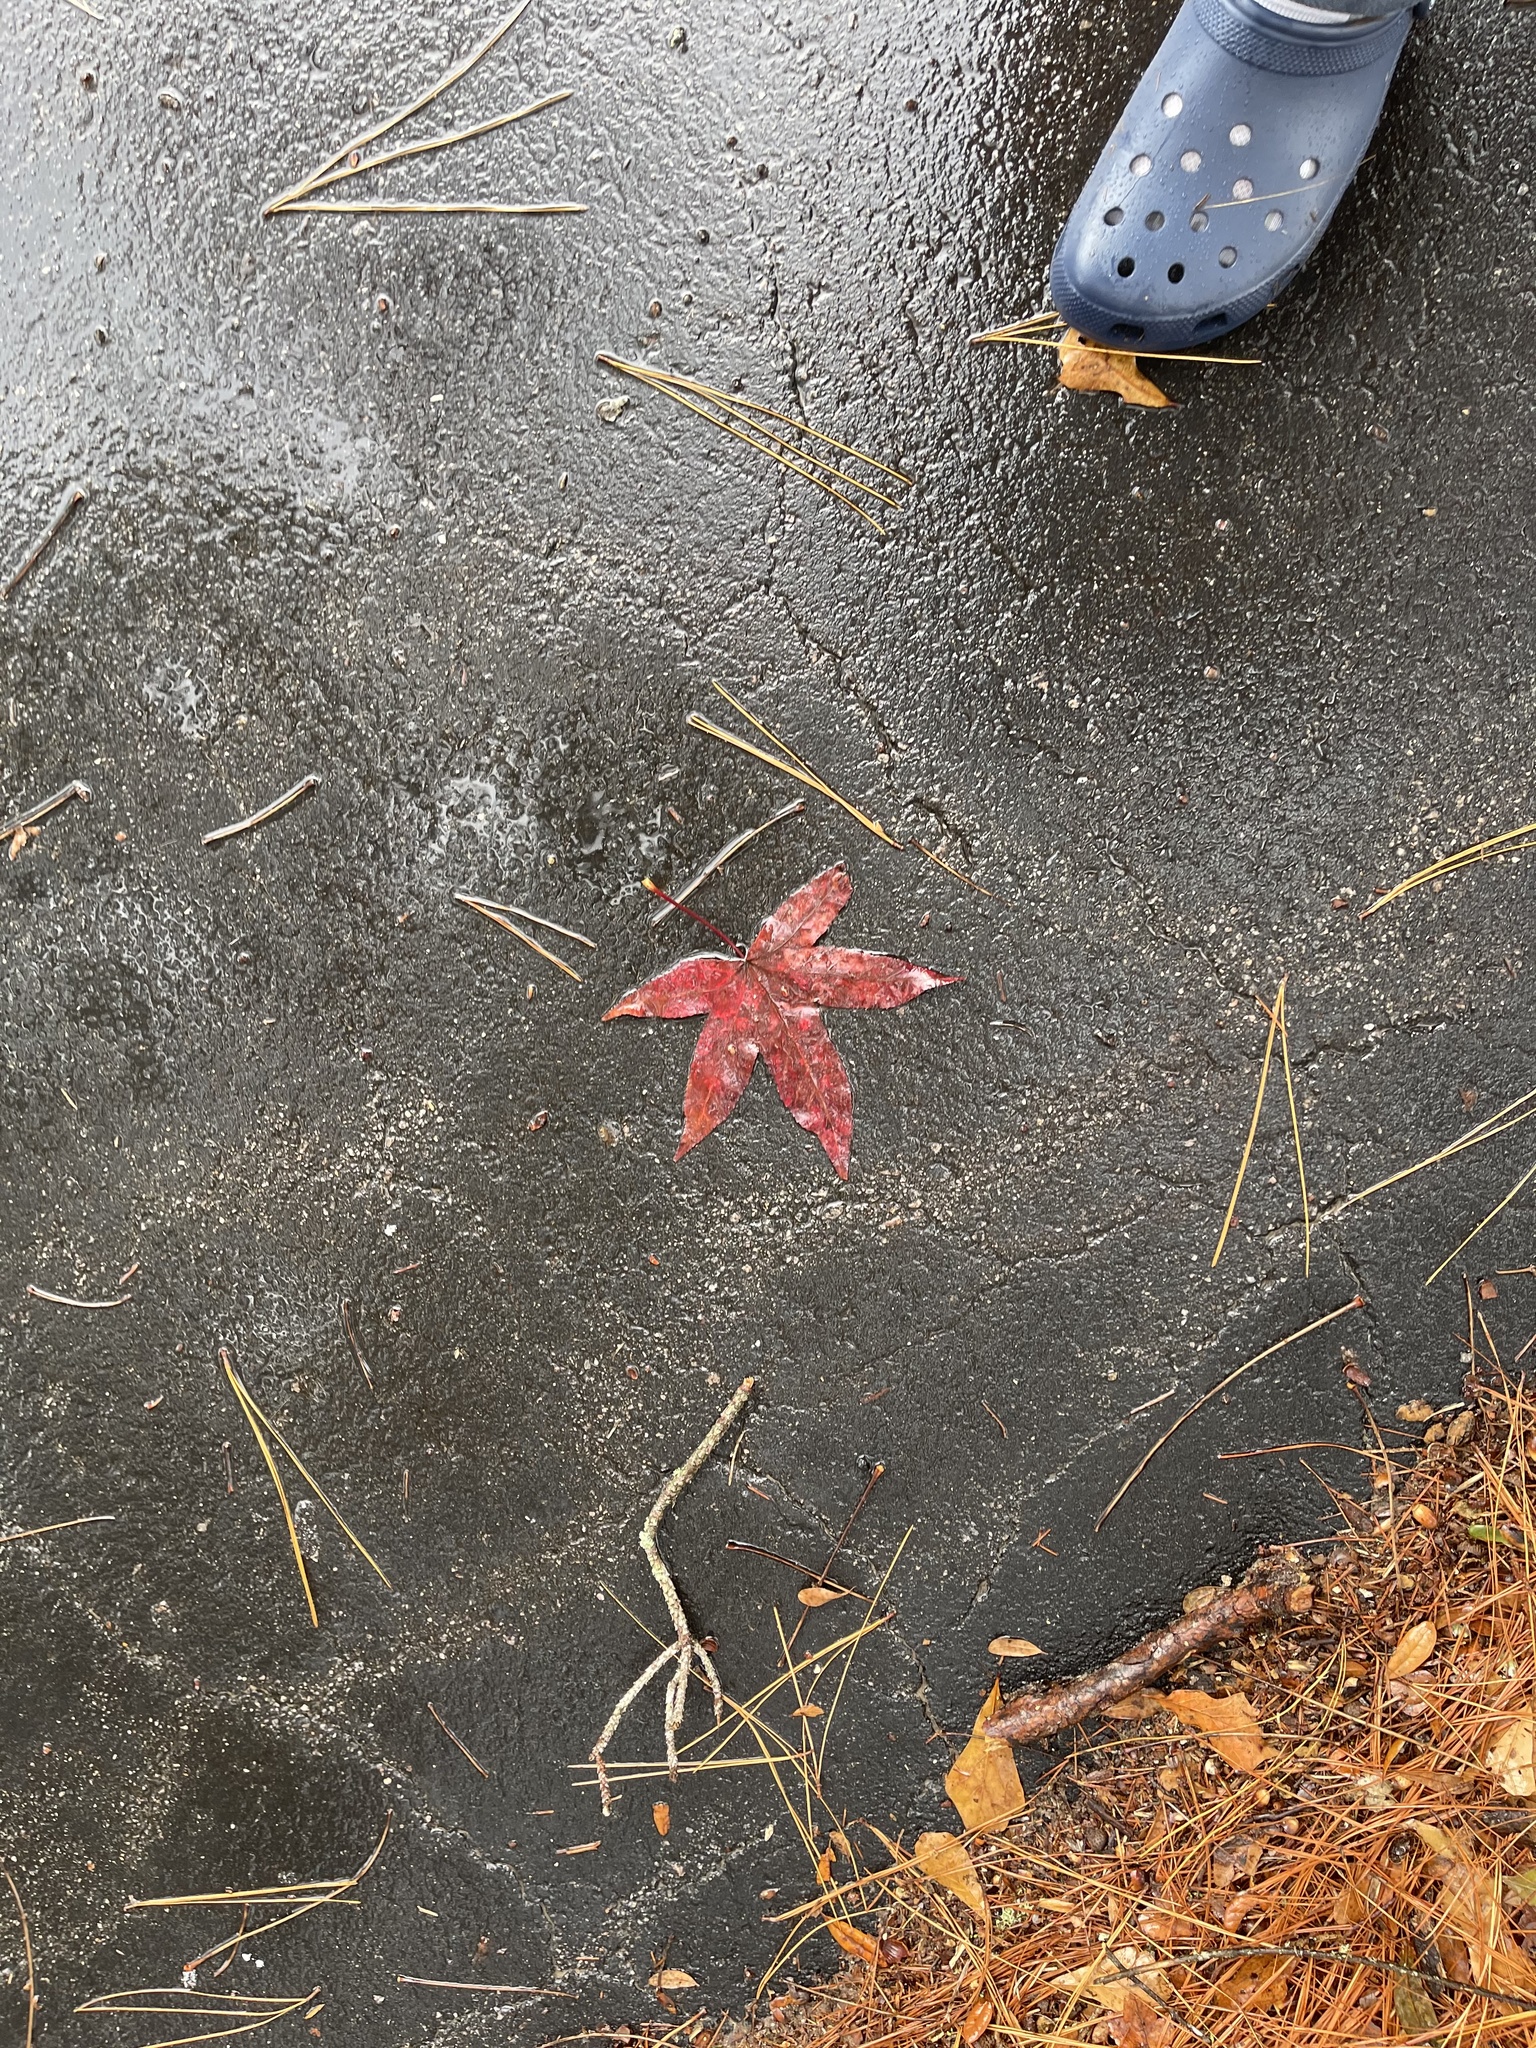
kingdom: Plantae
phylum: Tracheophyta
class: Magnoliopsida
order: Saxifragales
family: Altingiaceae
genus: Liquidambar
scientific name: Liquidambar styraciflua
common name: Sweet gum
